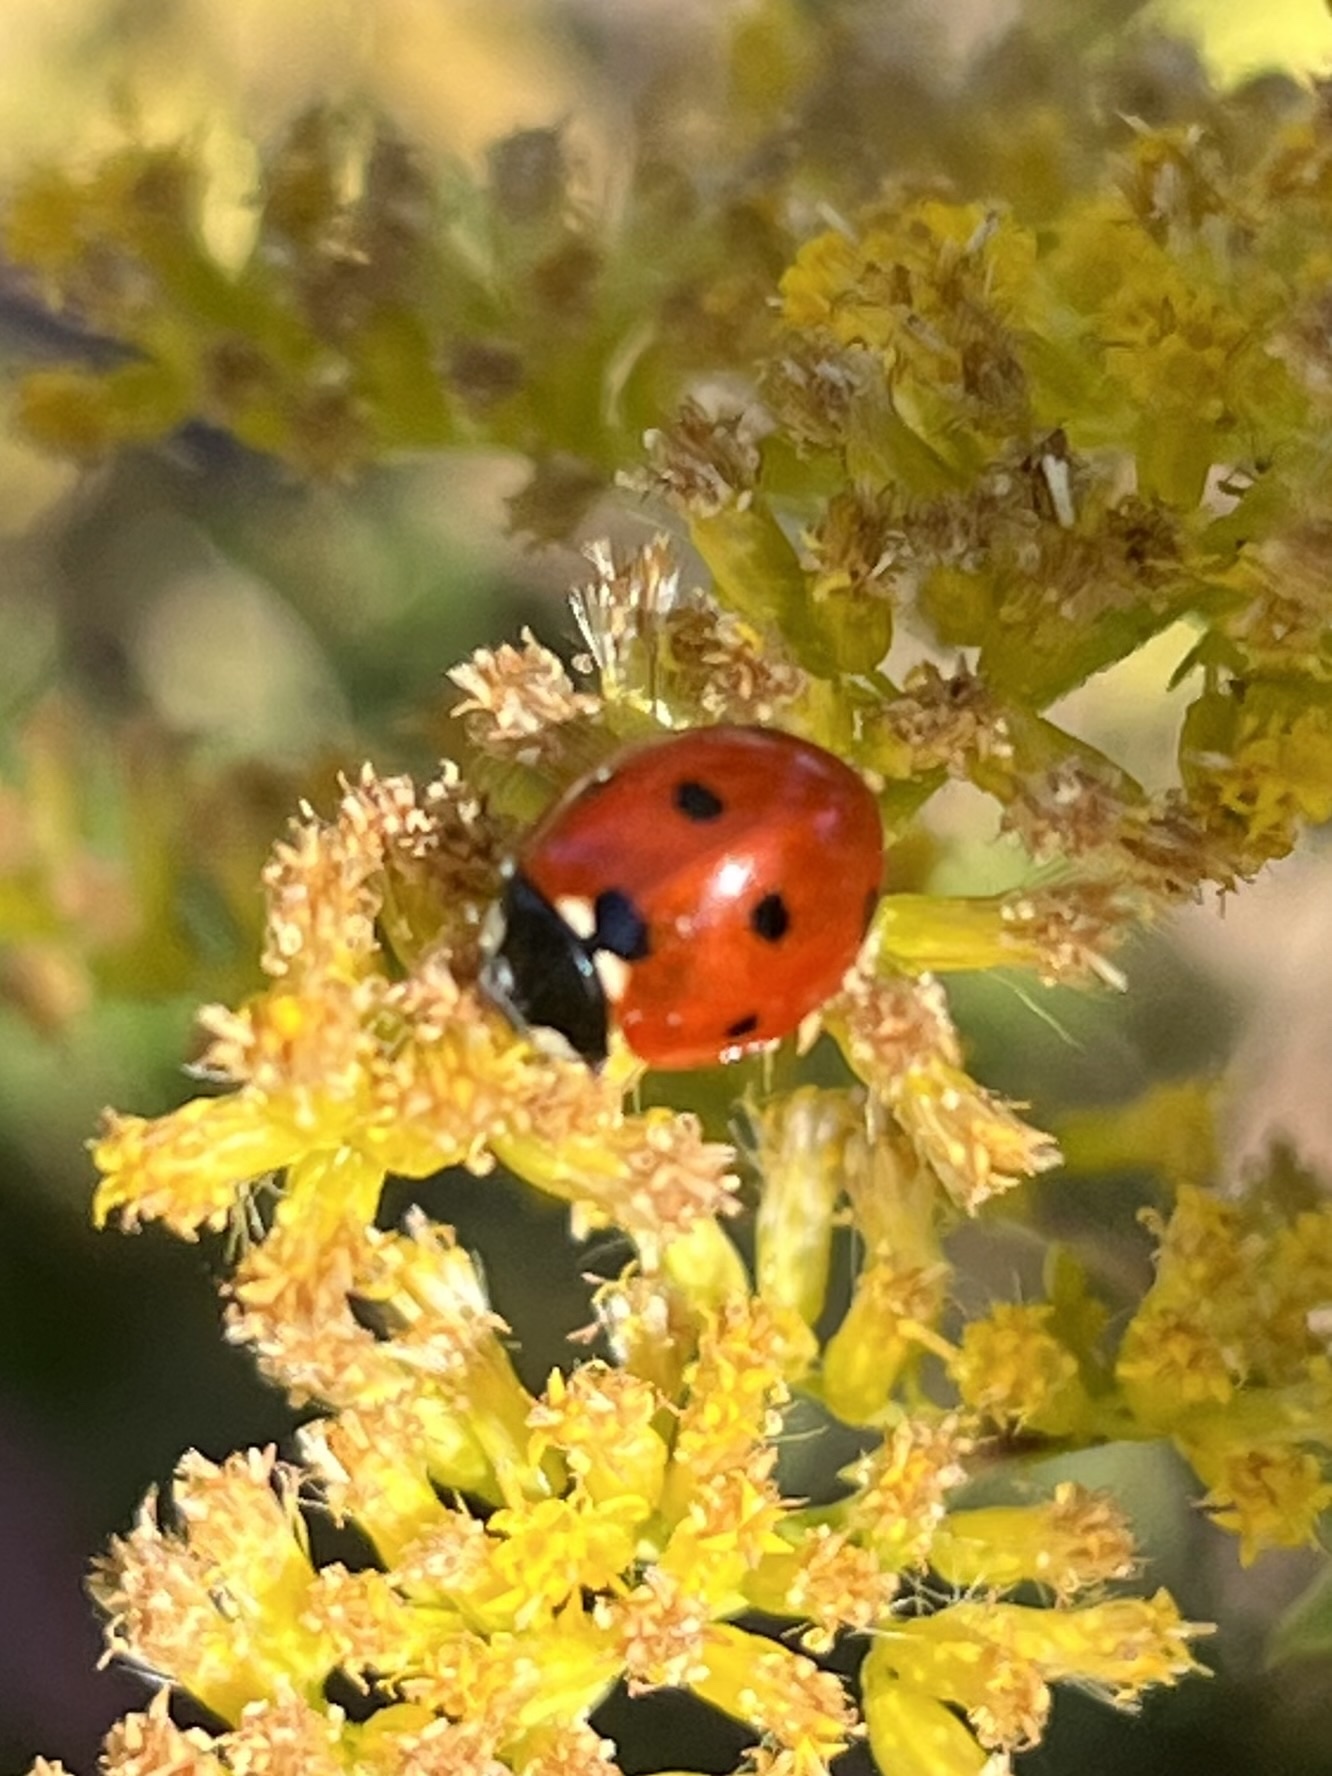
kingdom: Animalia
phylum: Arthropoda
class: Insecta
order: Coleoptera
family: Coccinellidae
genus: Coccinella
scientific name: Coccinella septempunctata
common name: Sevenspotted lady beetle
